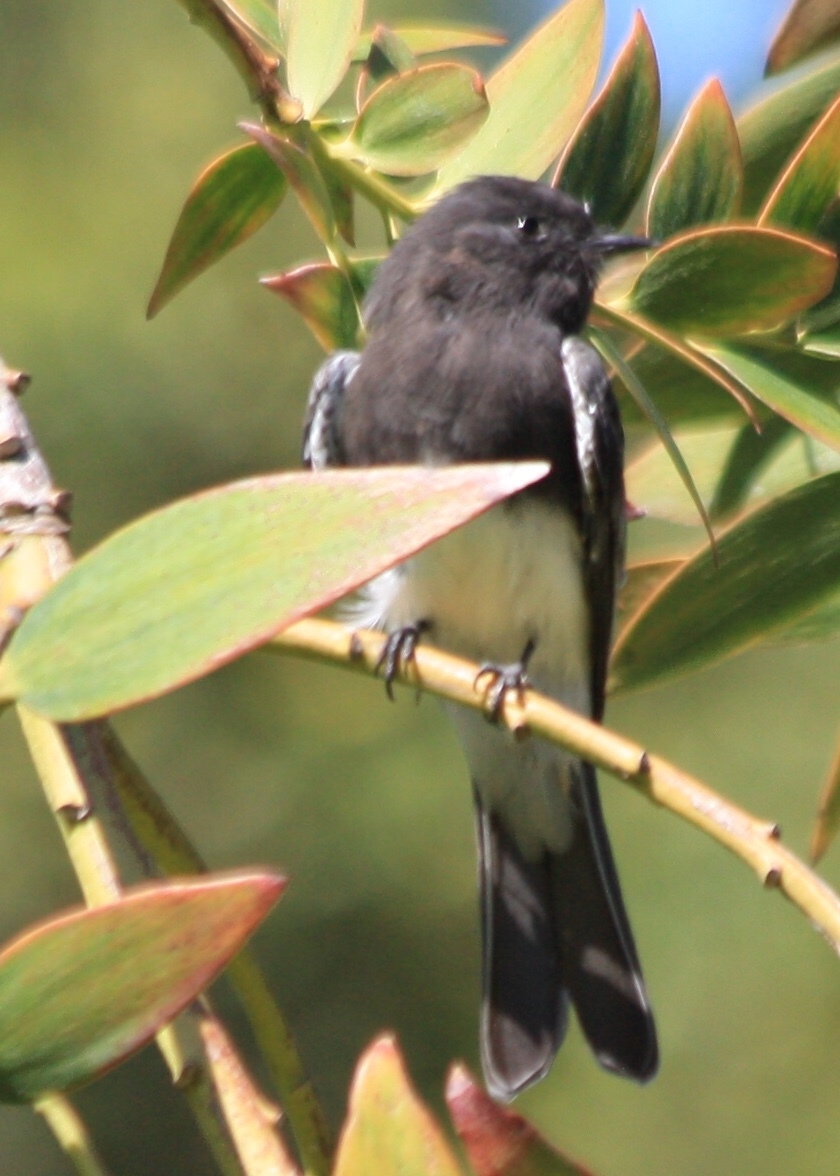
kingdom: Animalia
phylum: Chordata
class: Aves
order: Passeriformes
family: Tyrannidae
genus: Sayornis
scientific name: Sayornis nigricans
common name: Black phoebe
